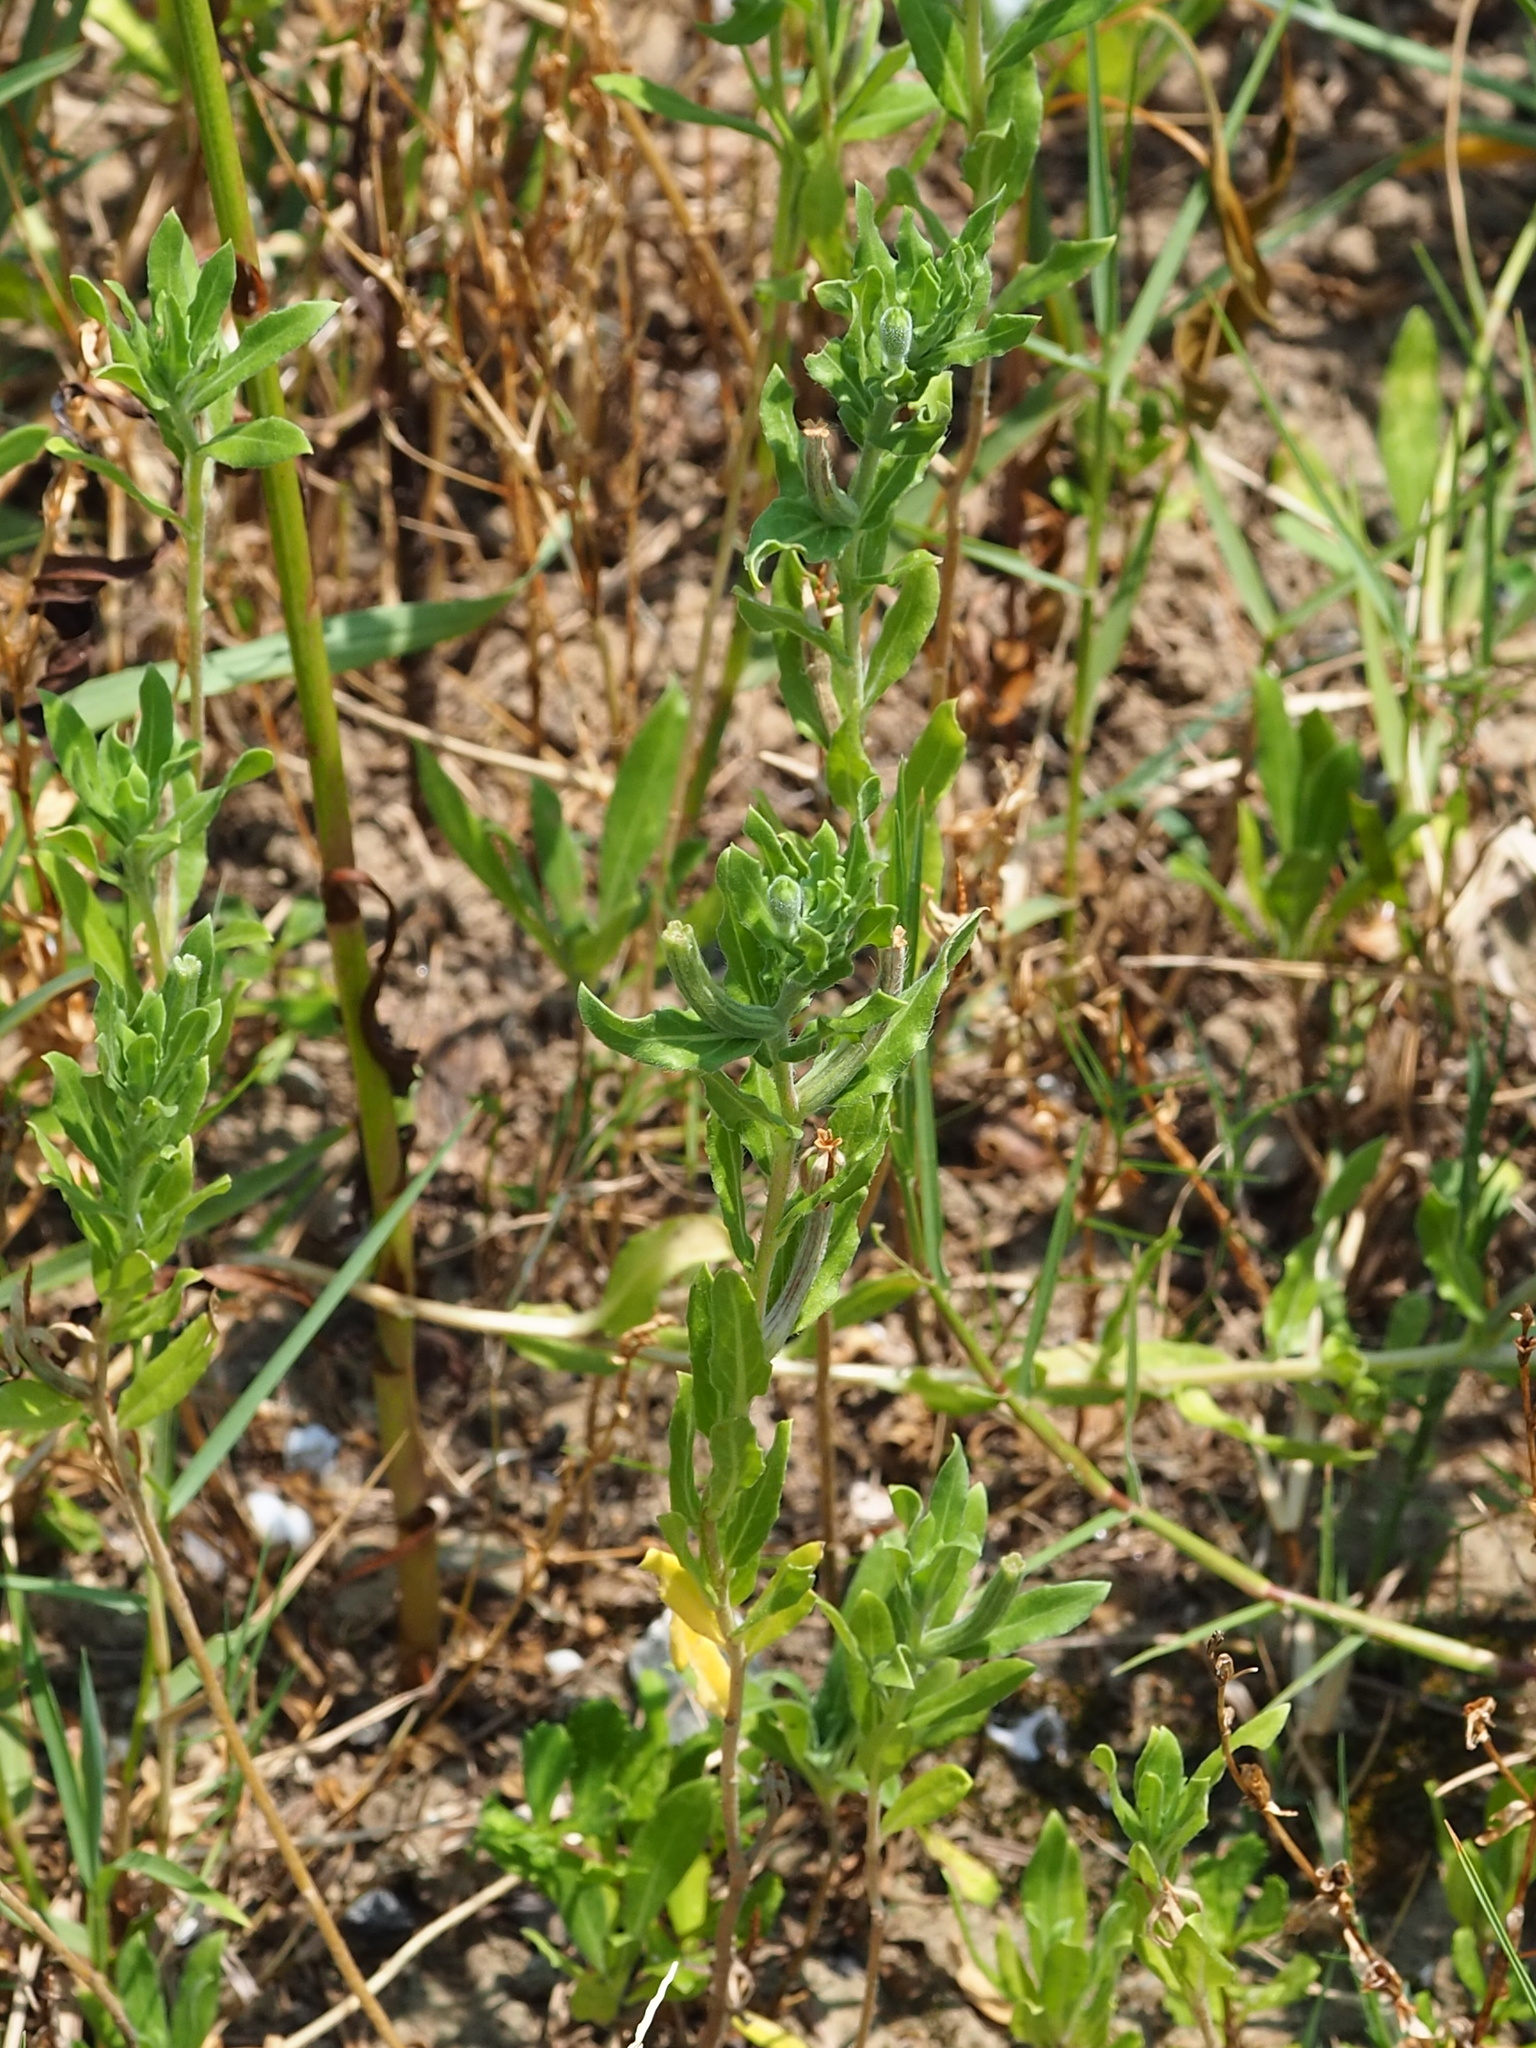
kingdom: Plantae
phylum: Tracheophyta
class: Magnoliopsida
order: Myrtales
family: Onagraceae
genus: Oenothera
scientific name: Oenothera laciniata
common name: Cut-leaved evening-primrose
